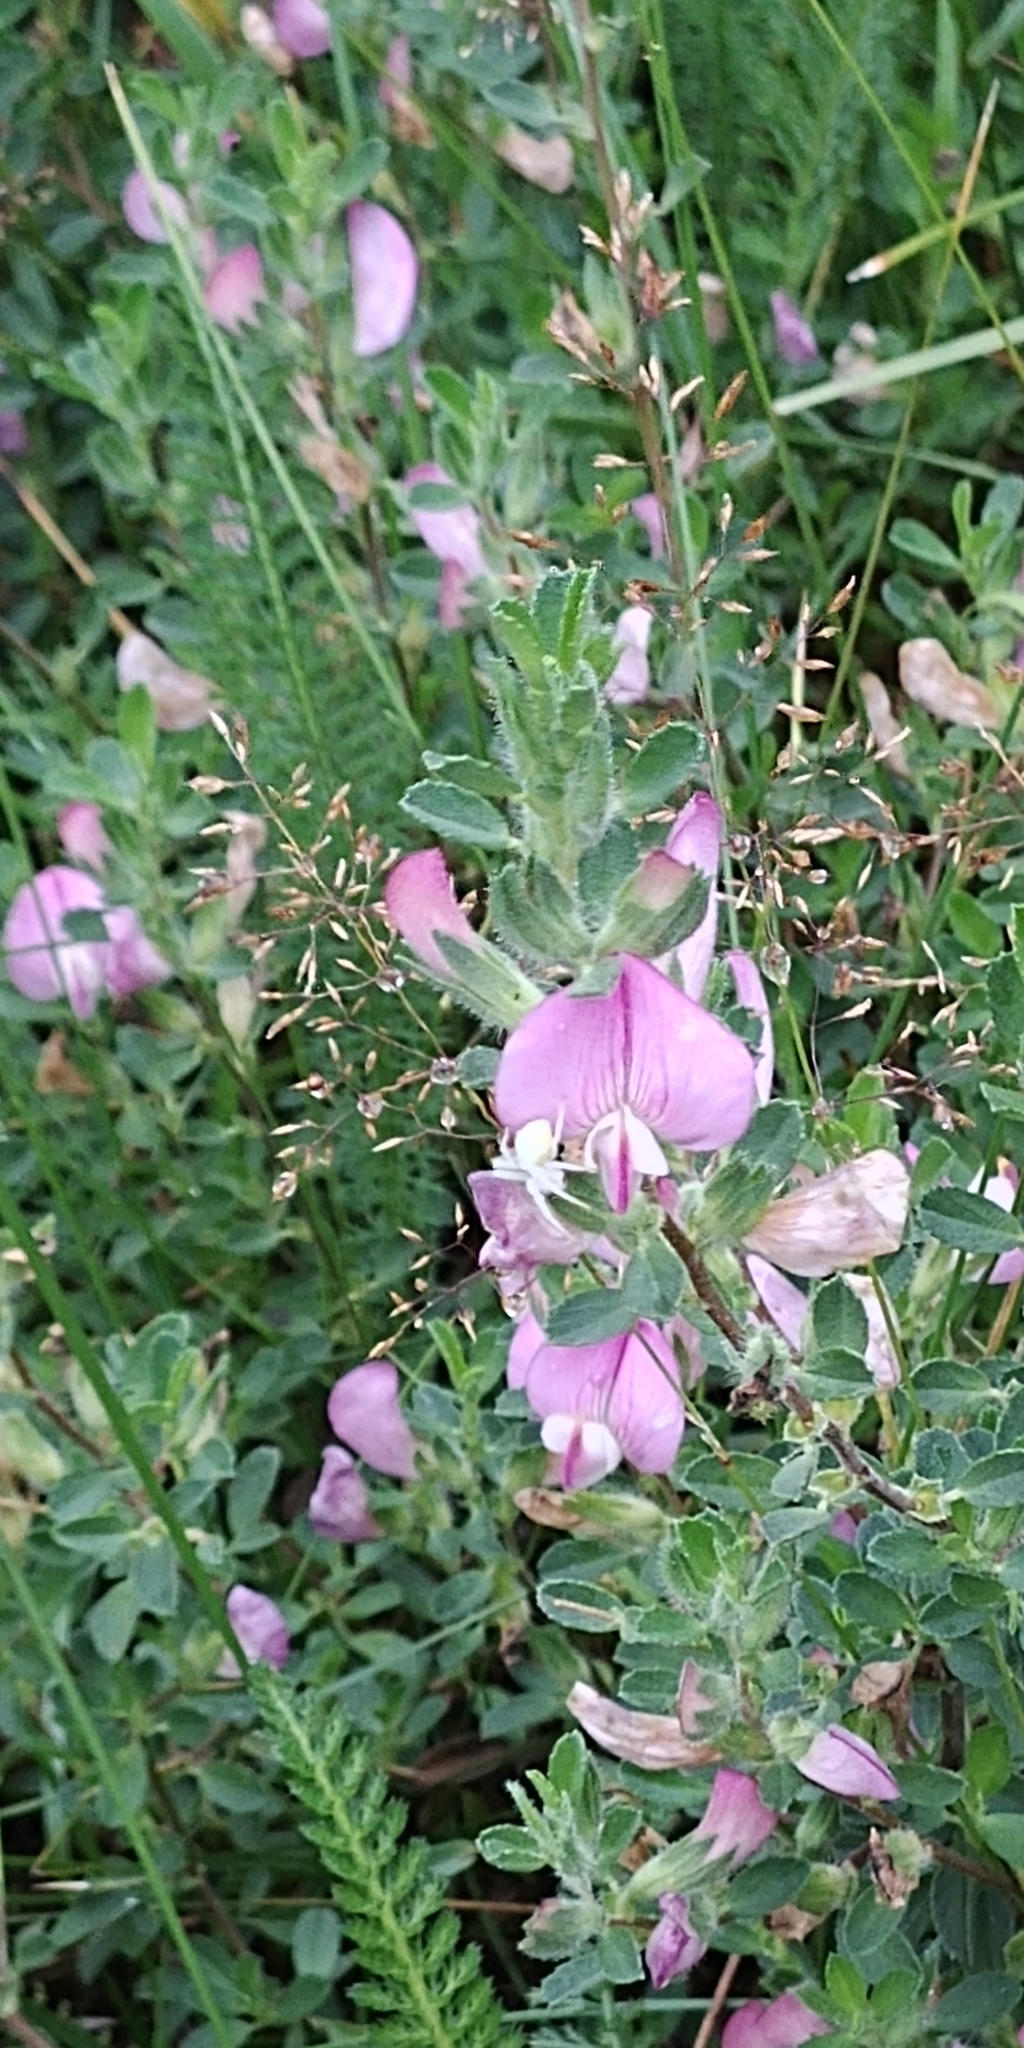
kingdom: Plantae
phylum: Tracheophyta
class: Magnoliopsida
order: Fabales
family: Fabaceae
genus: Ononis
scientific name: Ononis spinosa
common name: Spiny restharrow
